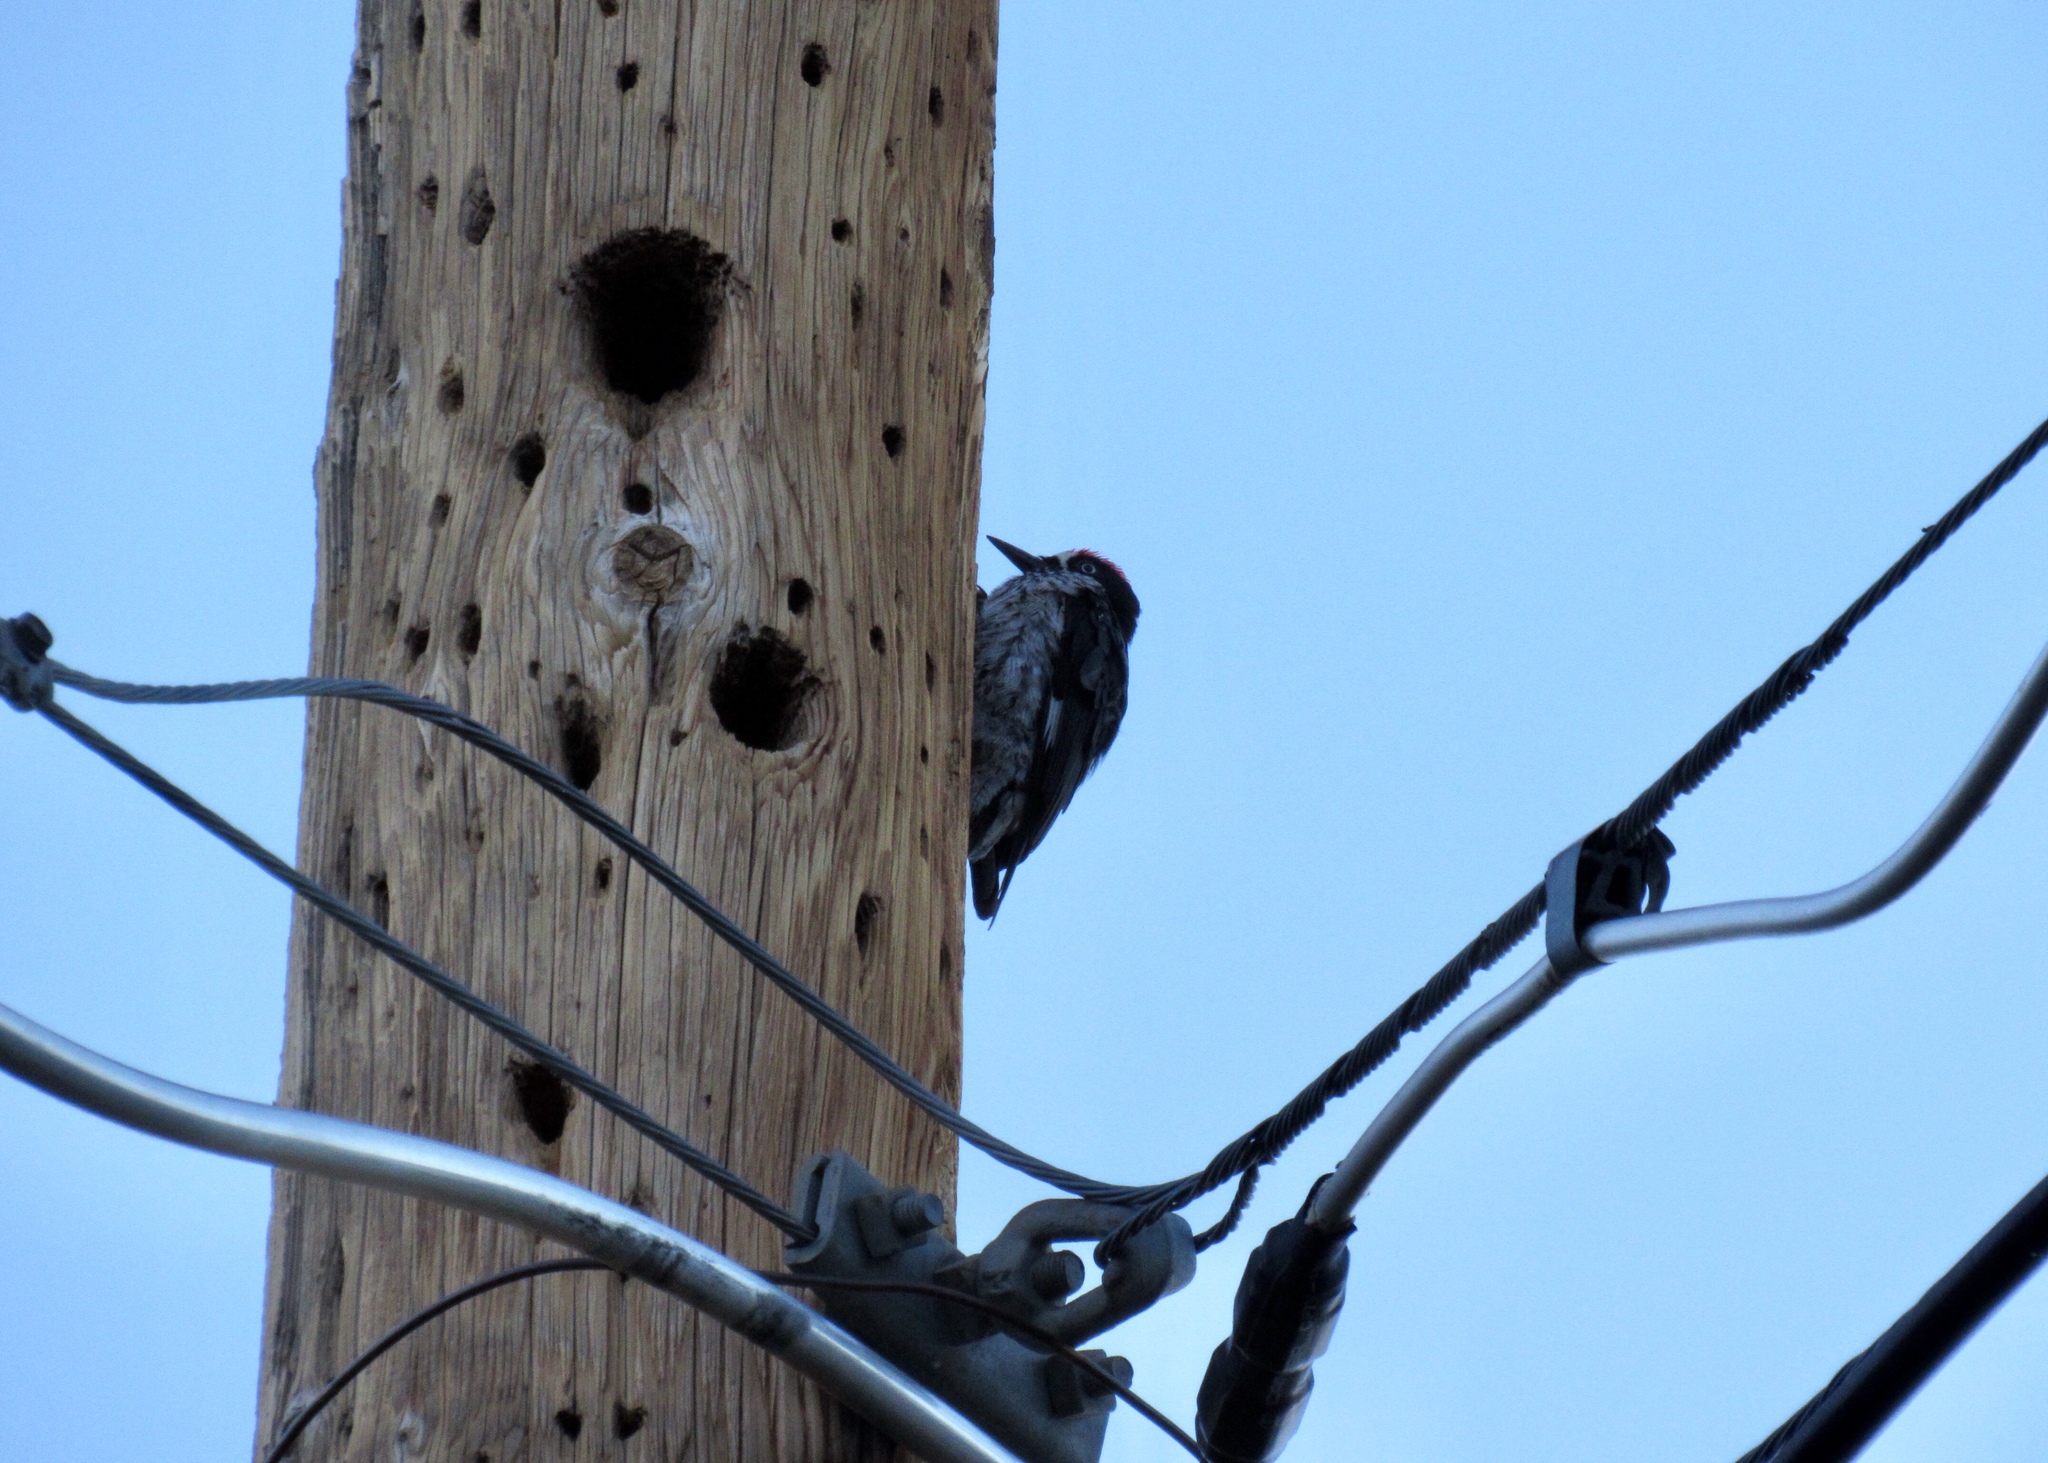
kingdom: Animalia
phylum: Chordata
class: Aves
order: Piciformes
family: Picidae
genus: Melanerpes
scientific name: Melanerpes formicivorus
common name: Acorn woodpecker
